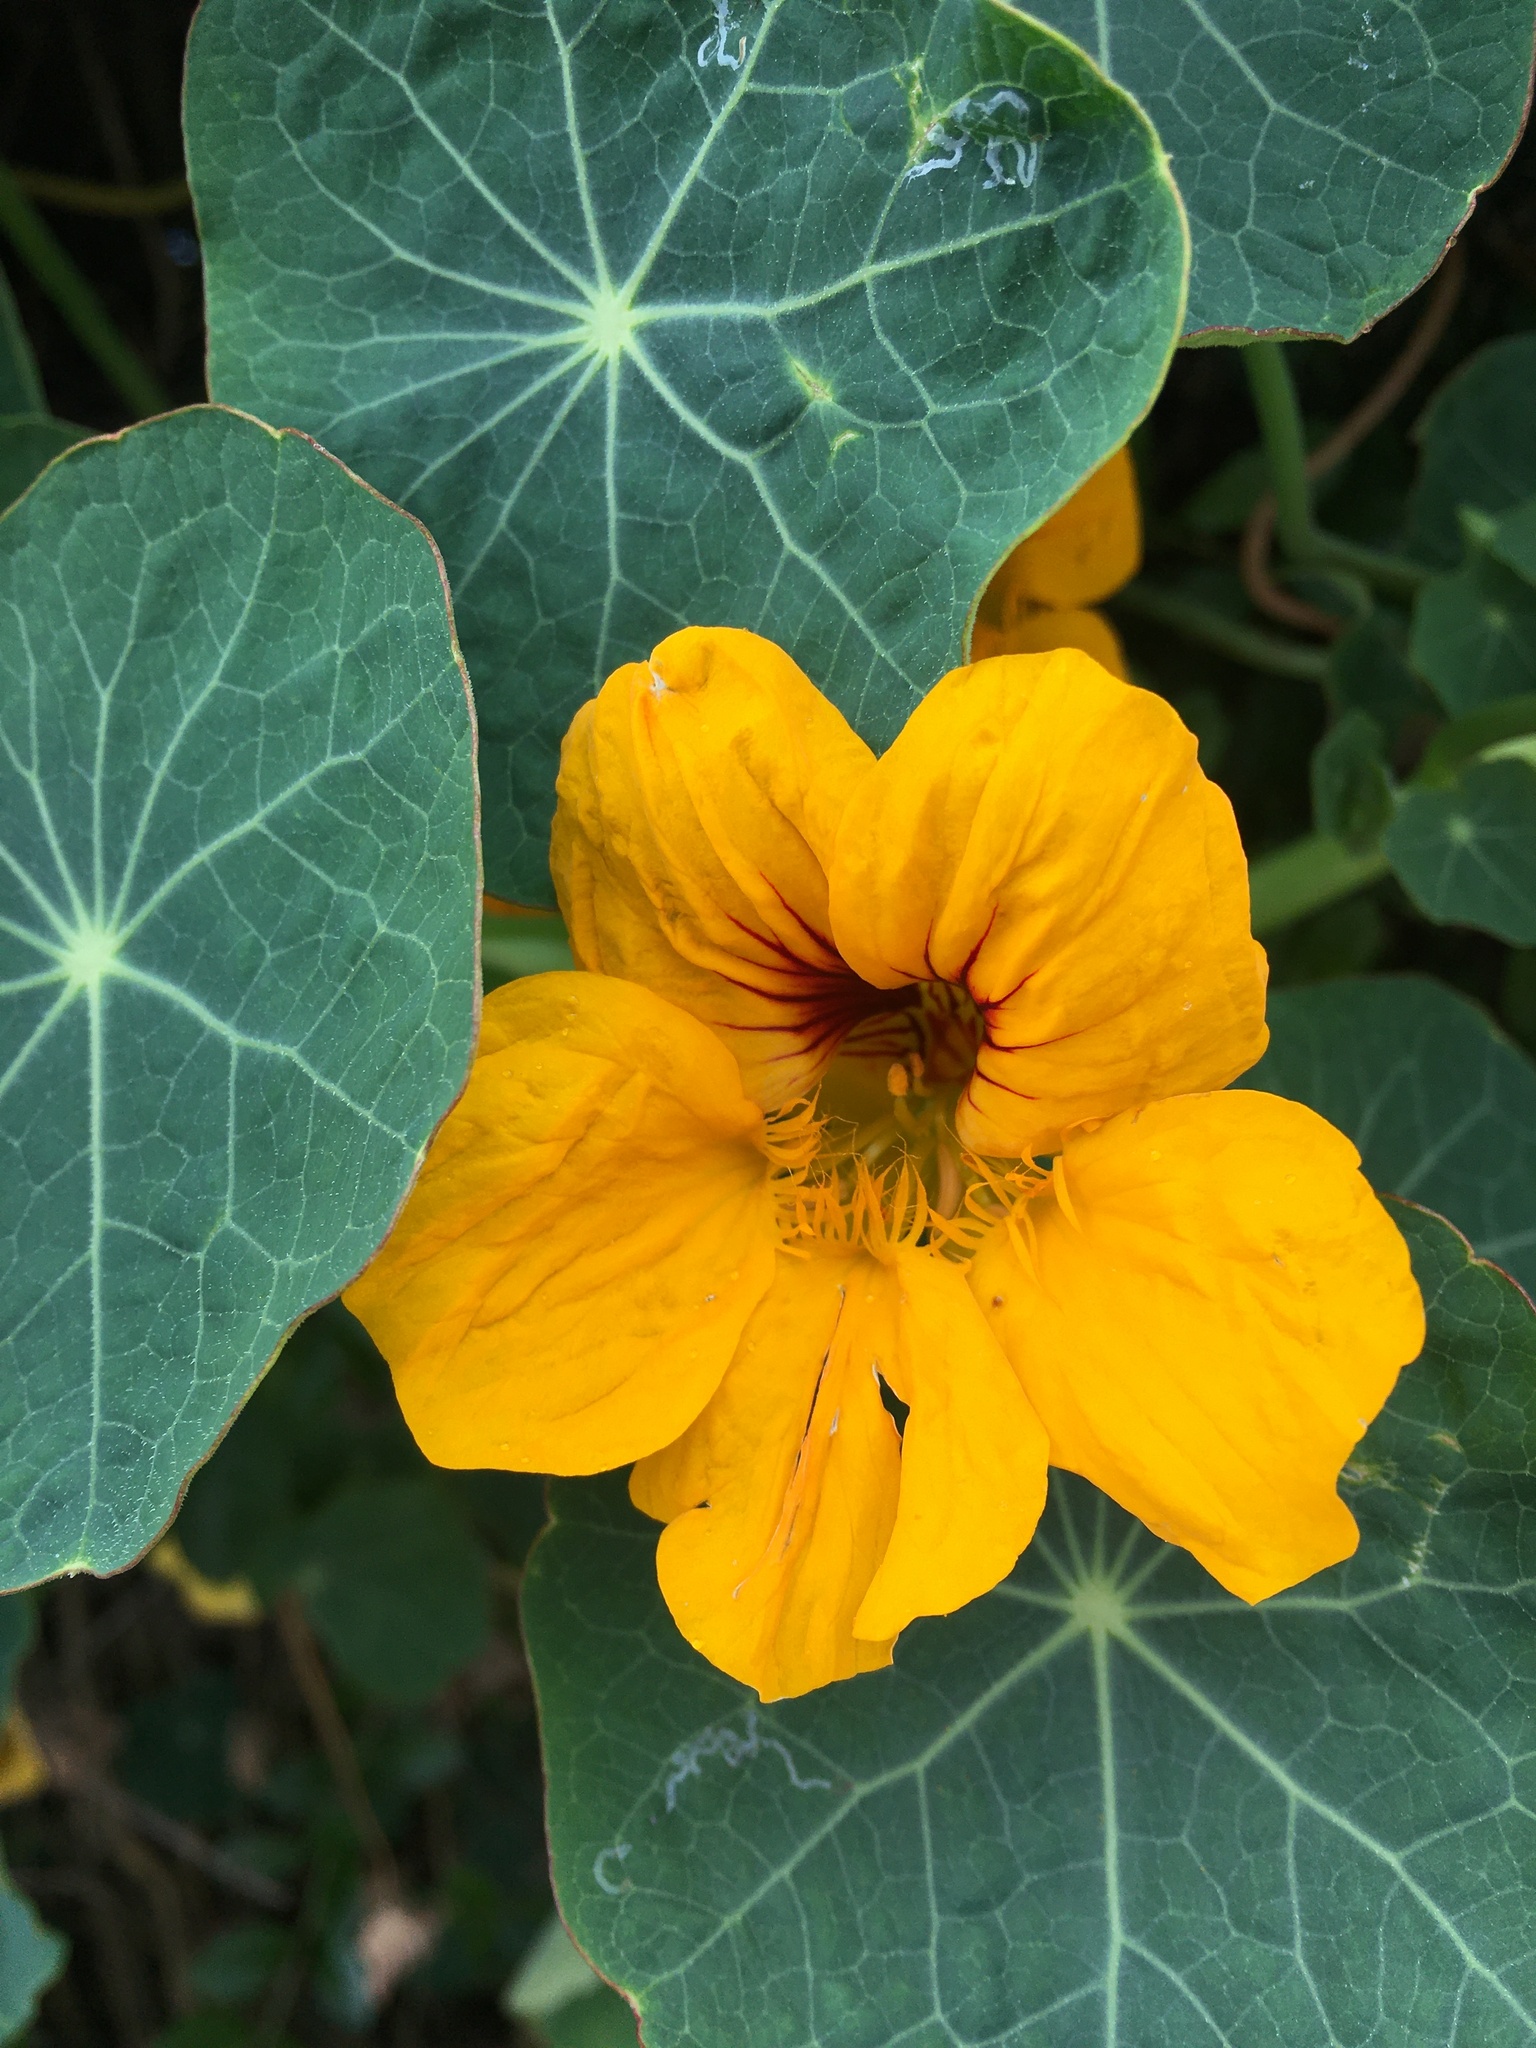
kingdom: Plantae
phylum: Tracheophyta
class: Magnoliopsida
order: Brassicales
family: Tropaeolaceae
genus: Tropaeolum
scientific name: Tropaeolum majus
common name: Nasturtium
